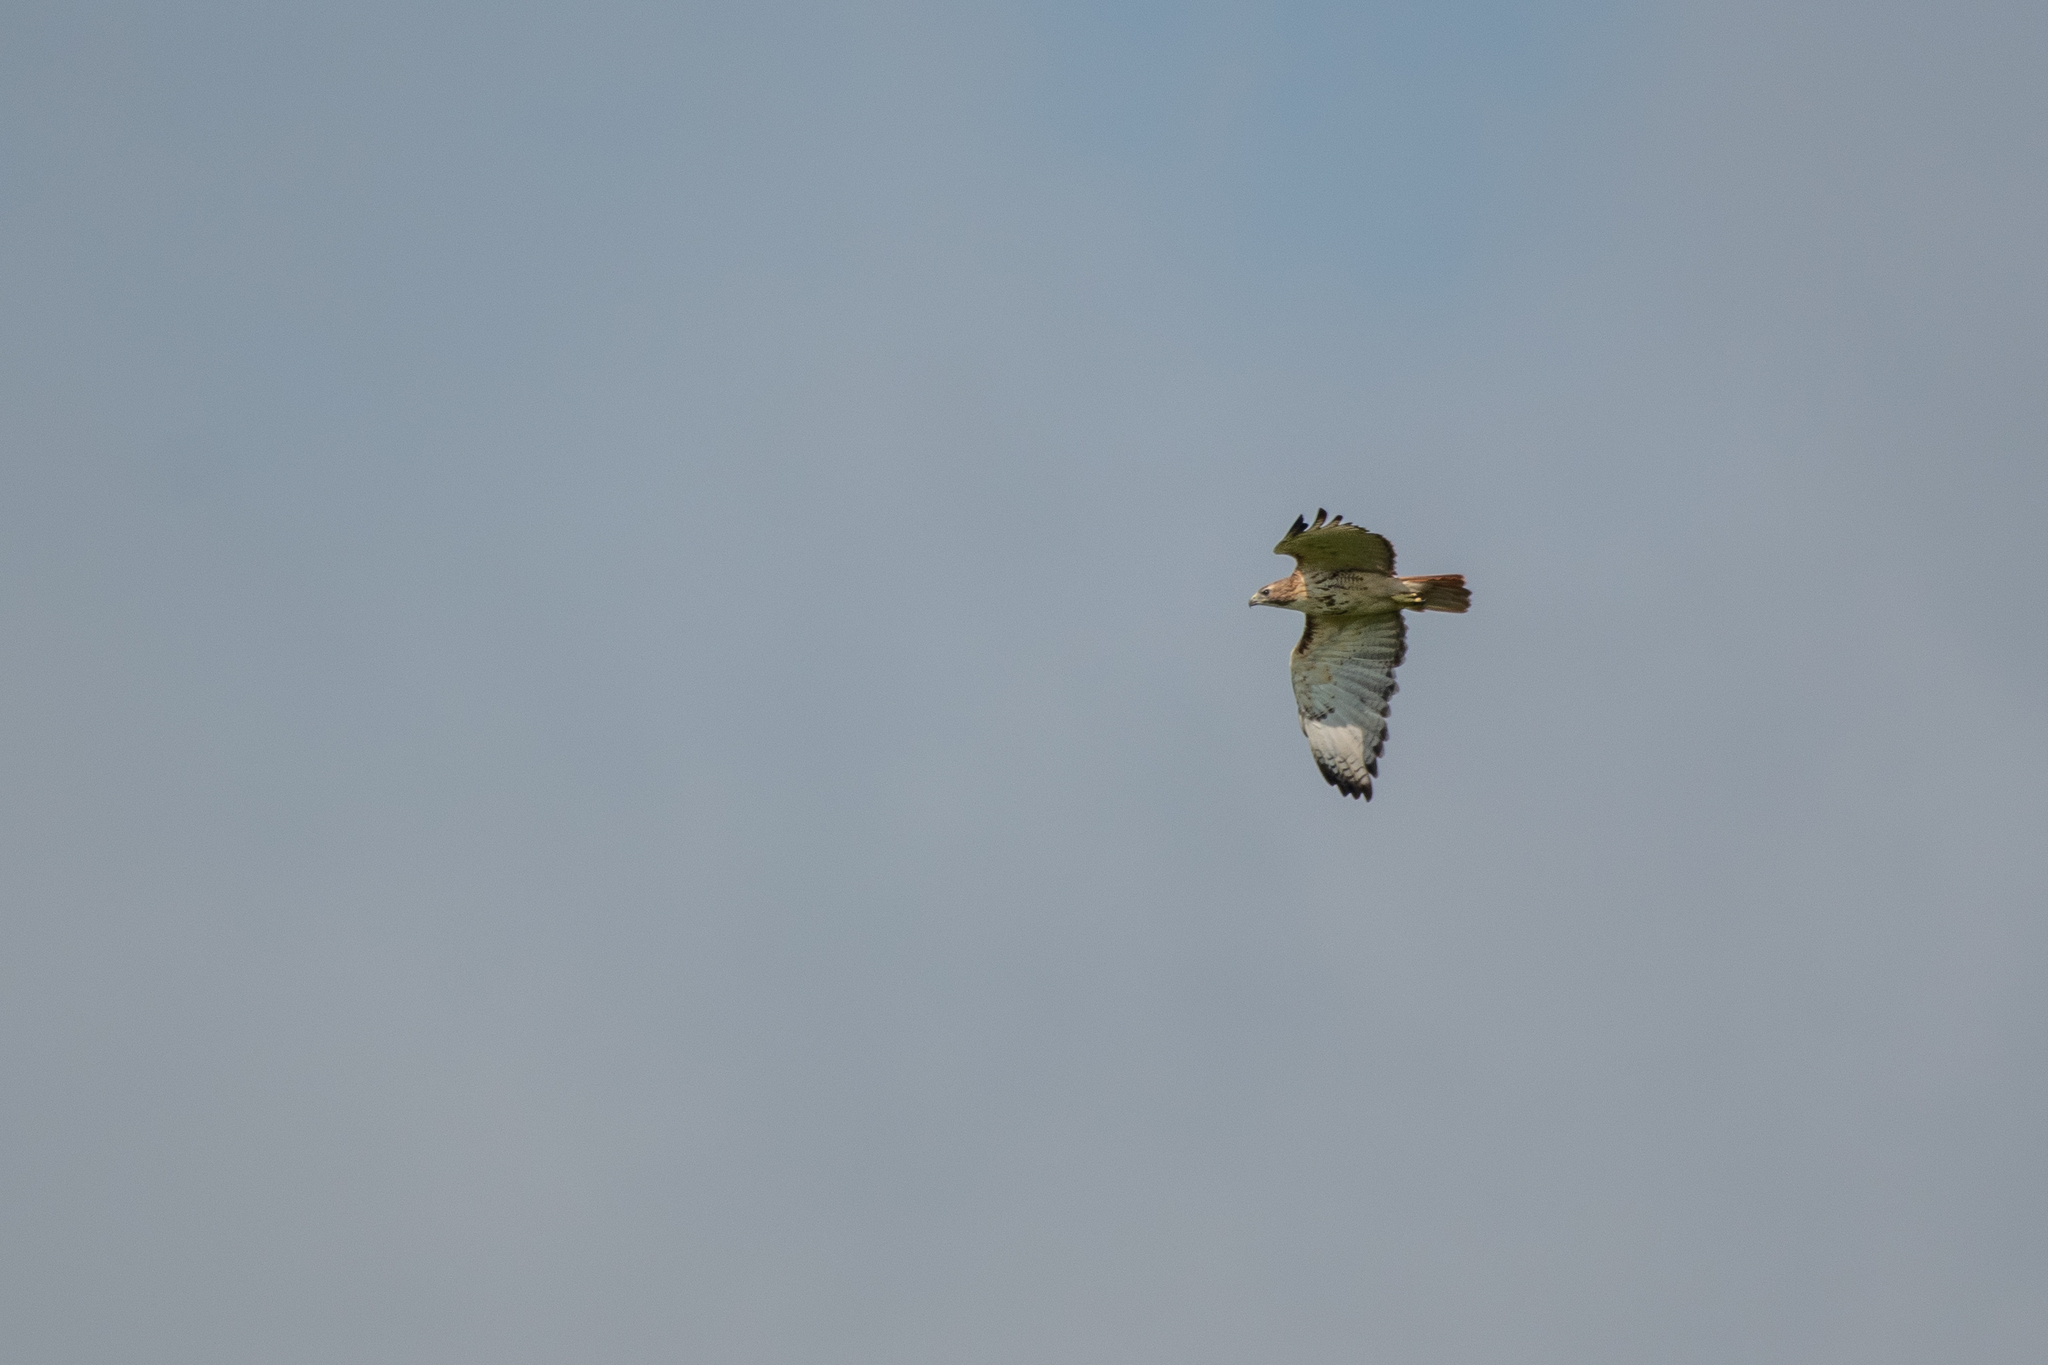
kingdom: Animalia
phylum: Chordata
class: Aves
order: Accipitriformes
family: Accipitridae
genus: Buteo
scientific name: Buteo jamaicensis
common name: Red-tailed hawk
